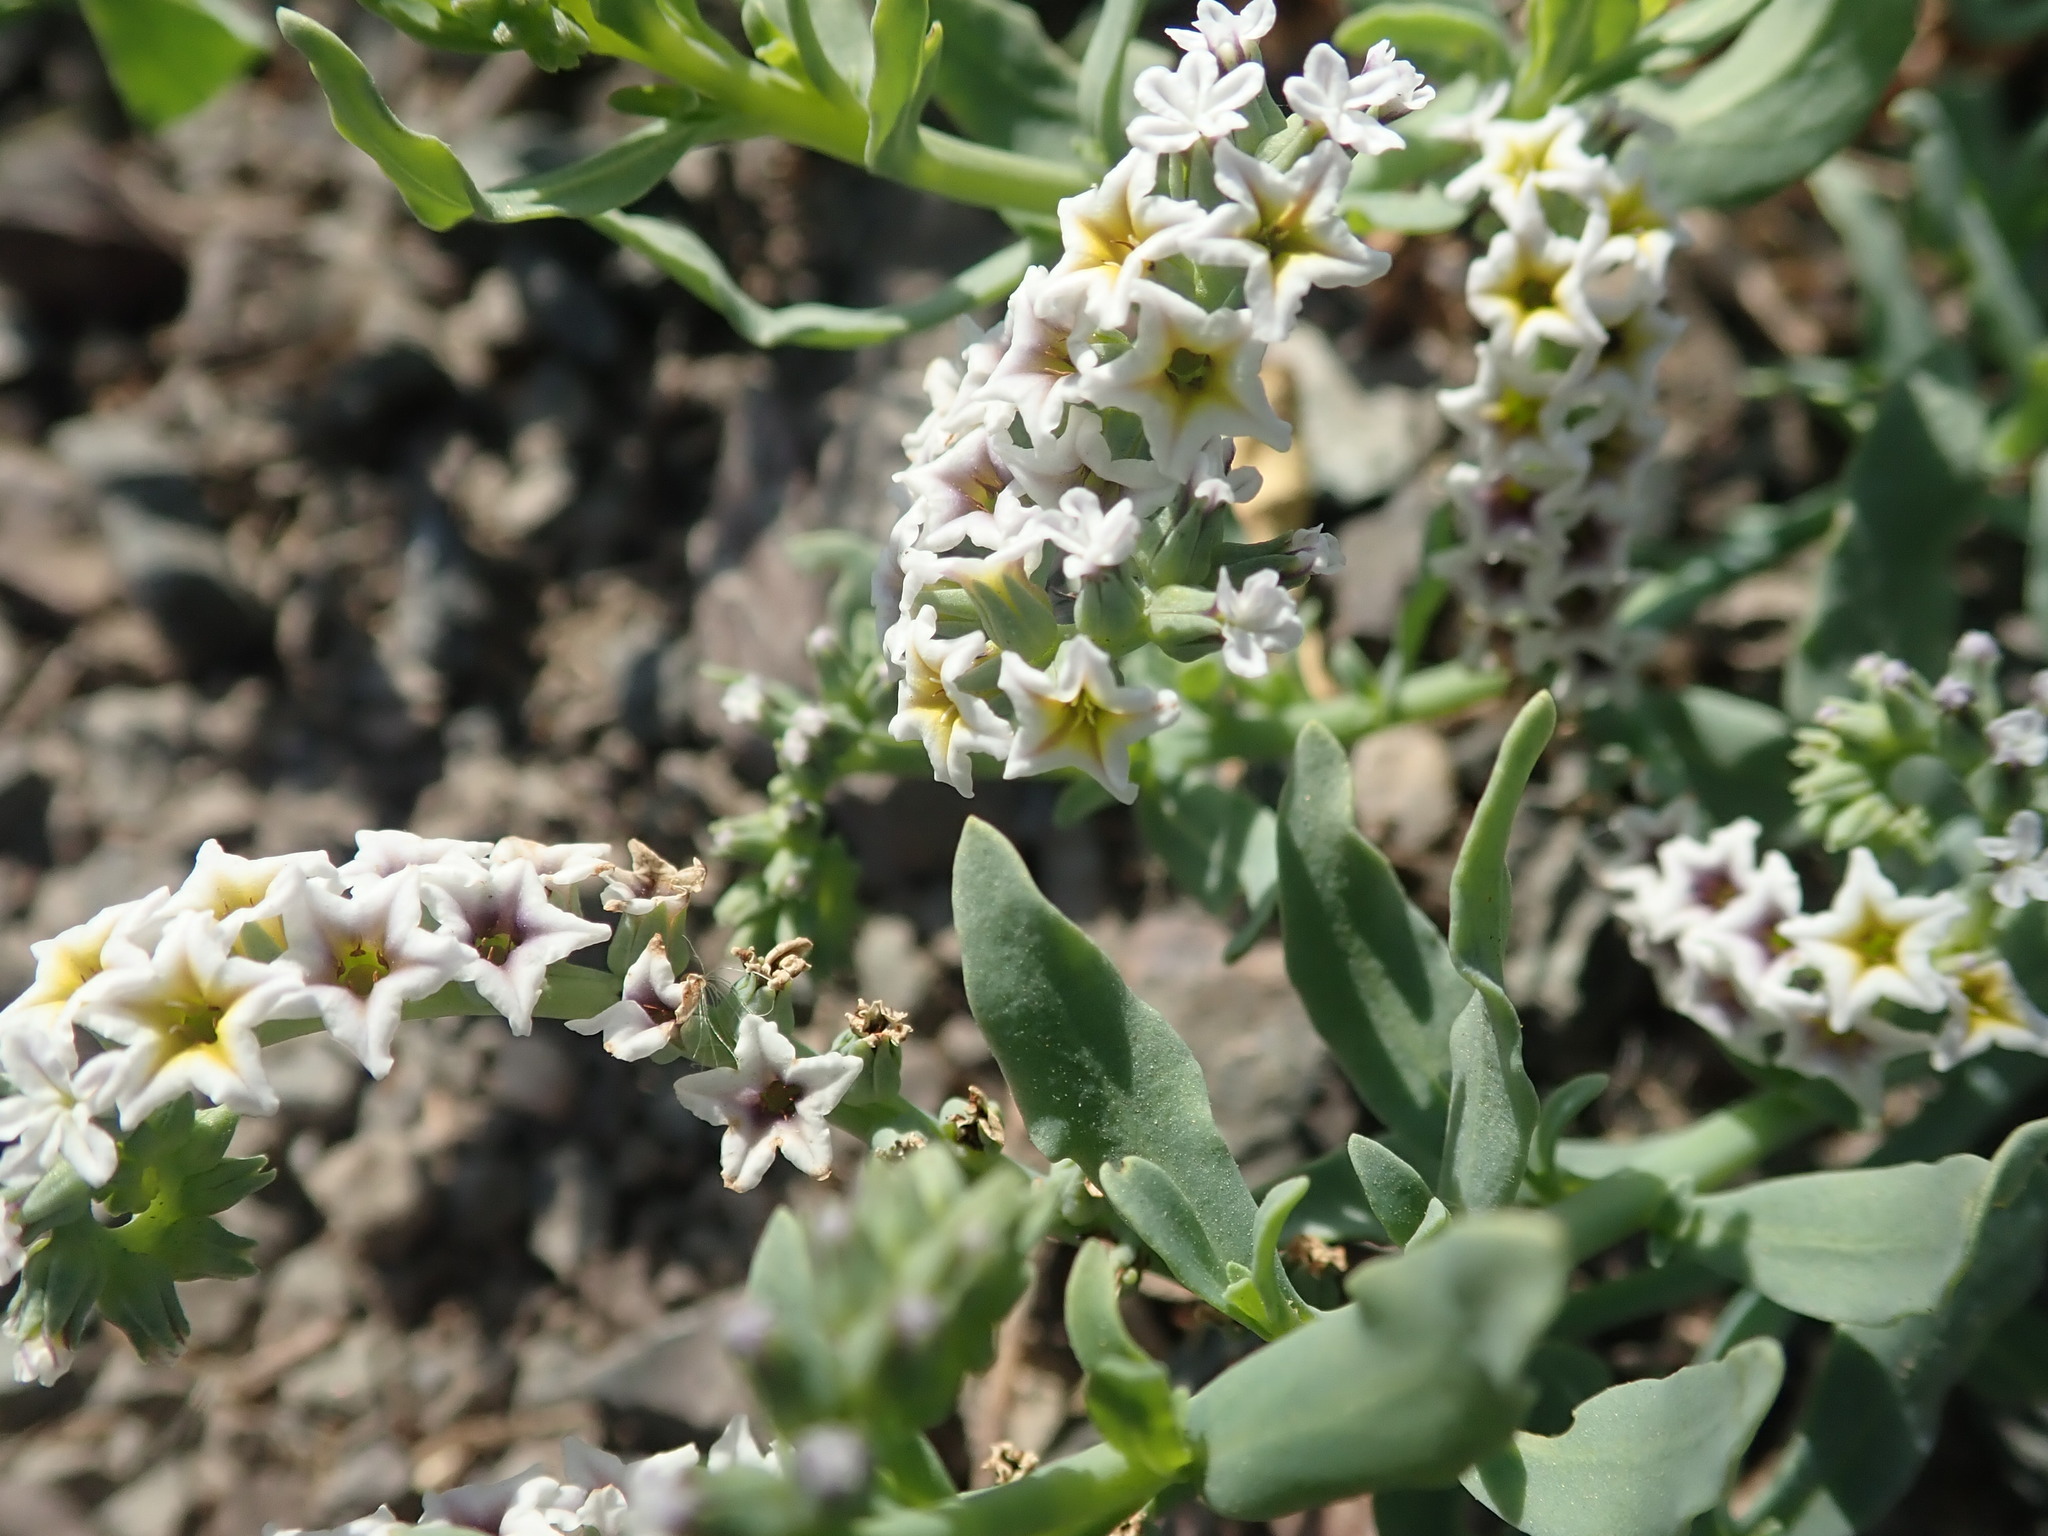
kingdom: Plantae
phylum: Tracheophyta
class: Magnoliopsida
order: Boraginales
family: Heliotropiaceae
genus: Heliotropium
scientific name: Heliotropium curassavicum
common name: Seaside heliotrope
